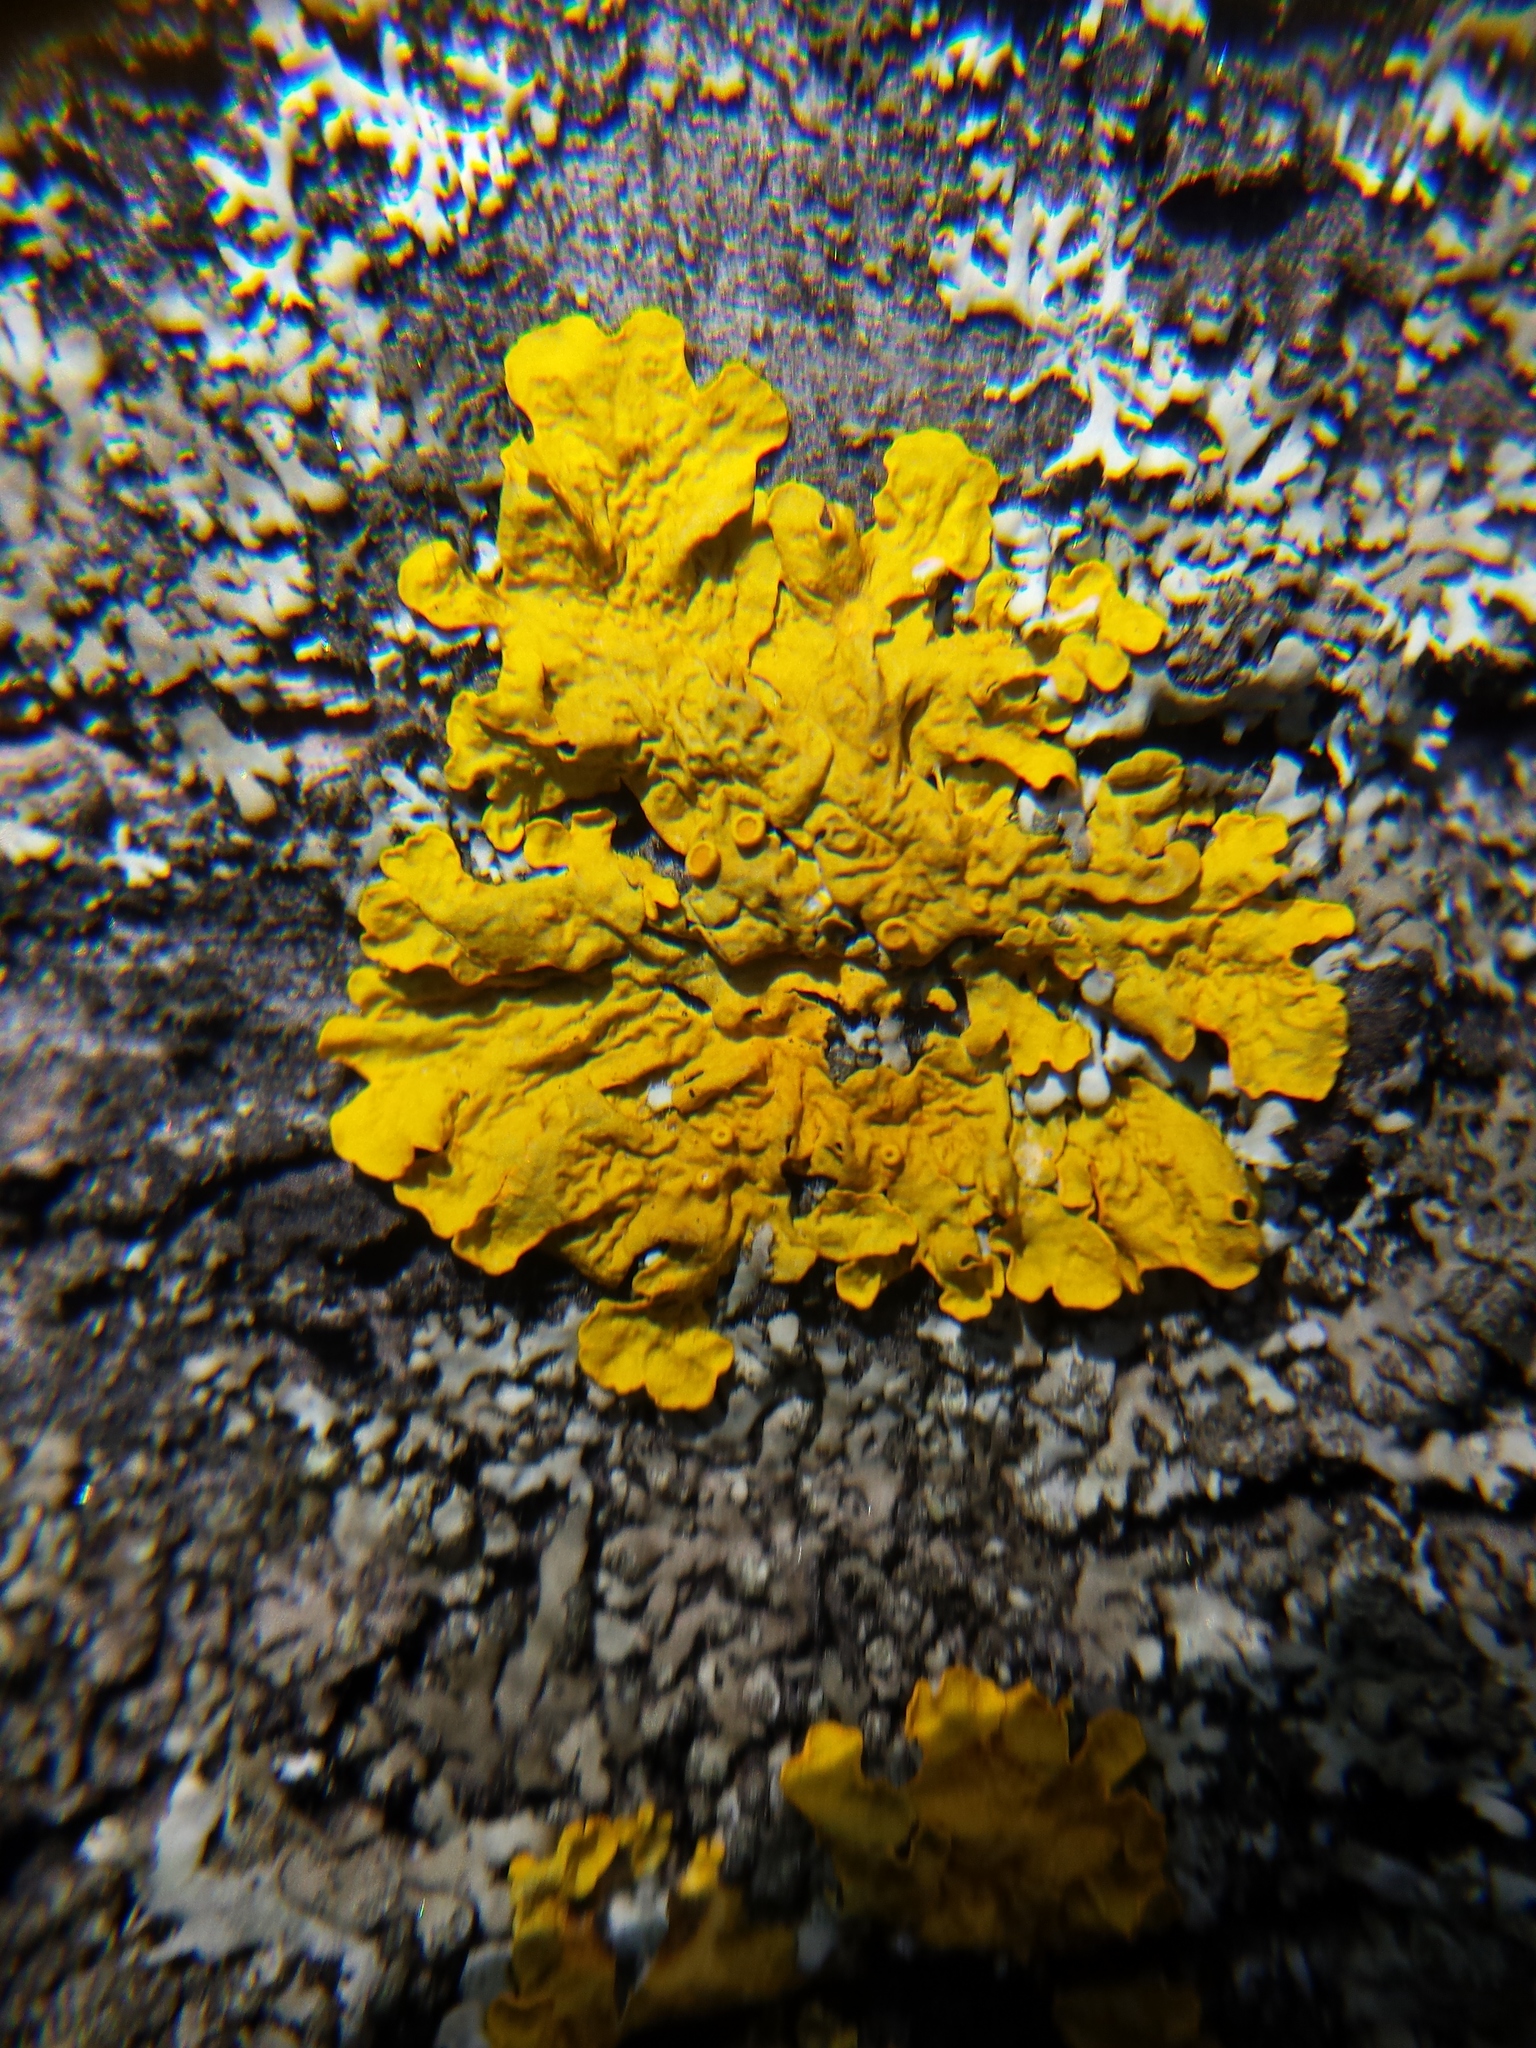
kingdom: Fungi
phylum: Ascomycota
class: Lecanoromycetes
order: Teloschistales
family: Teloschistaceae
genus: Xanthoria
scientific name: Xanthoria parietina
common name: Common orange lichen
